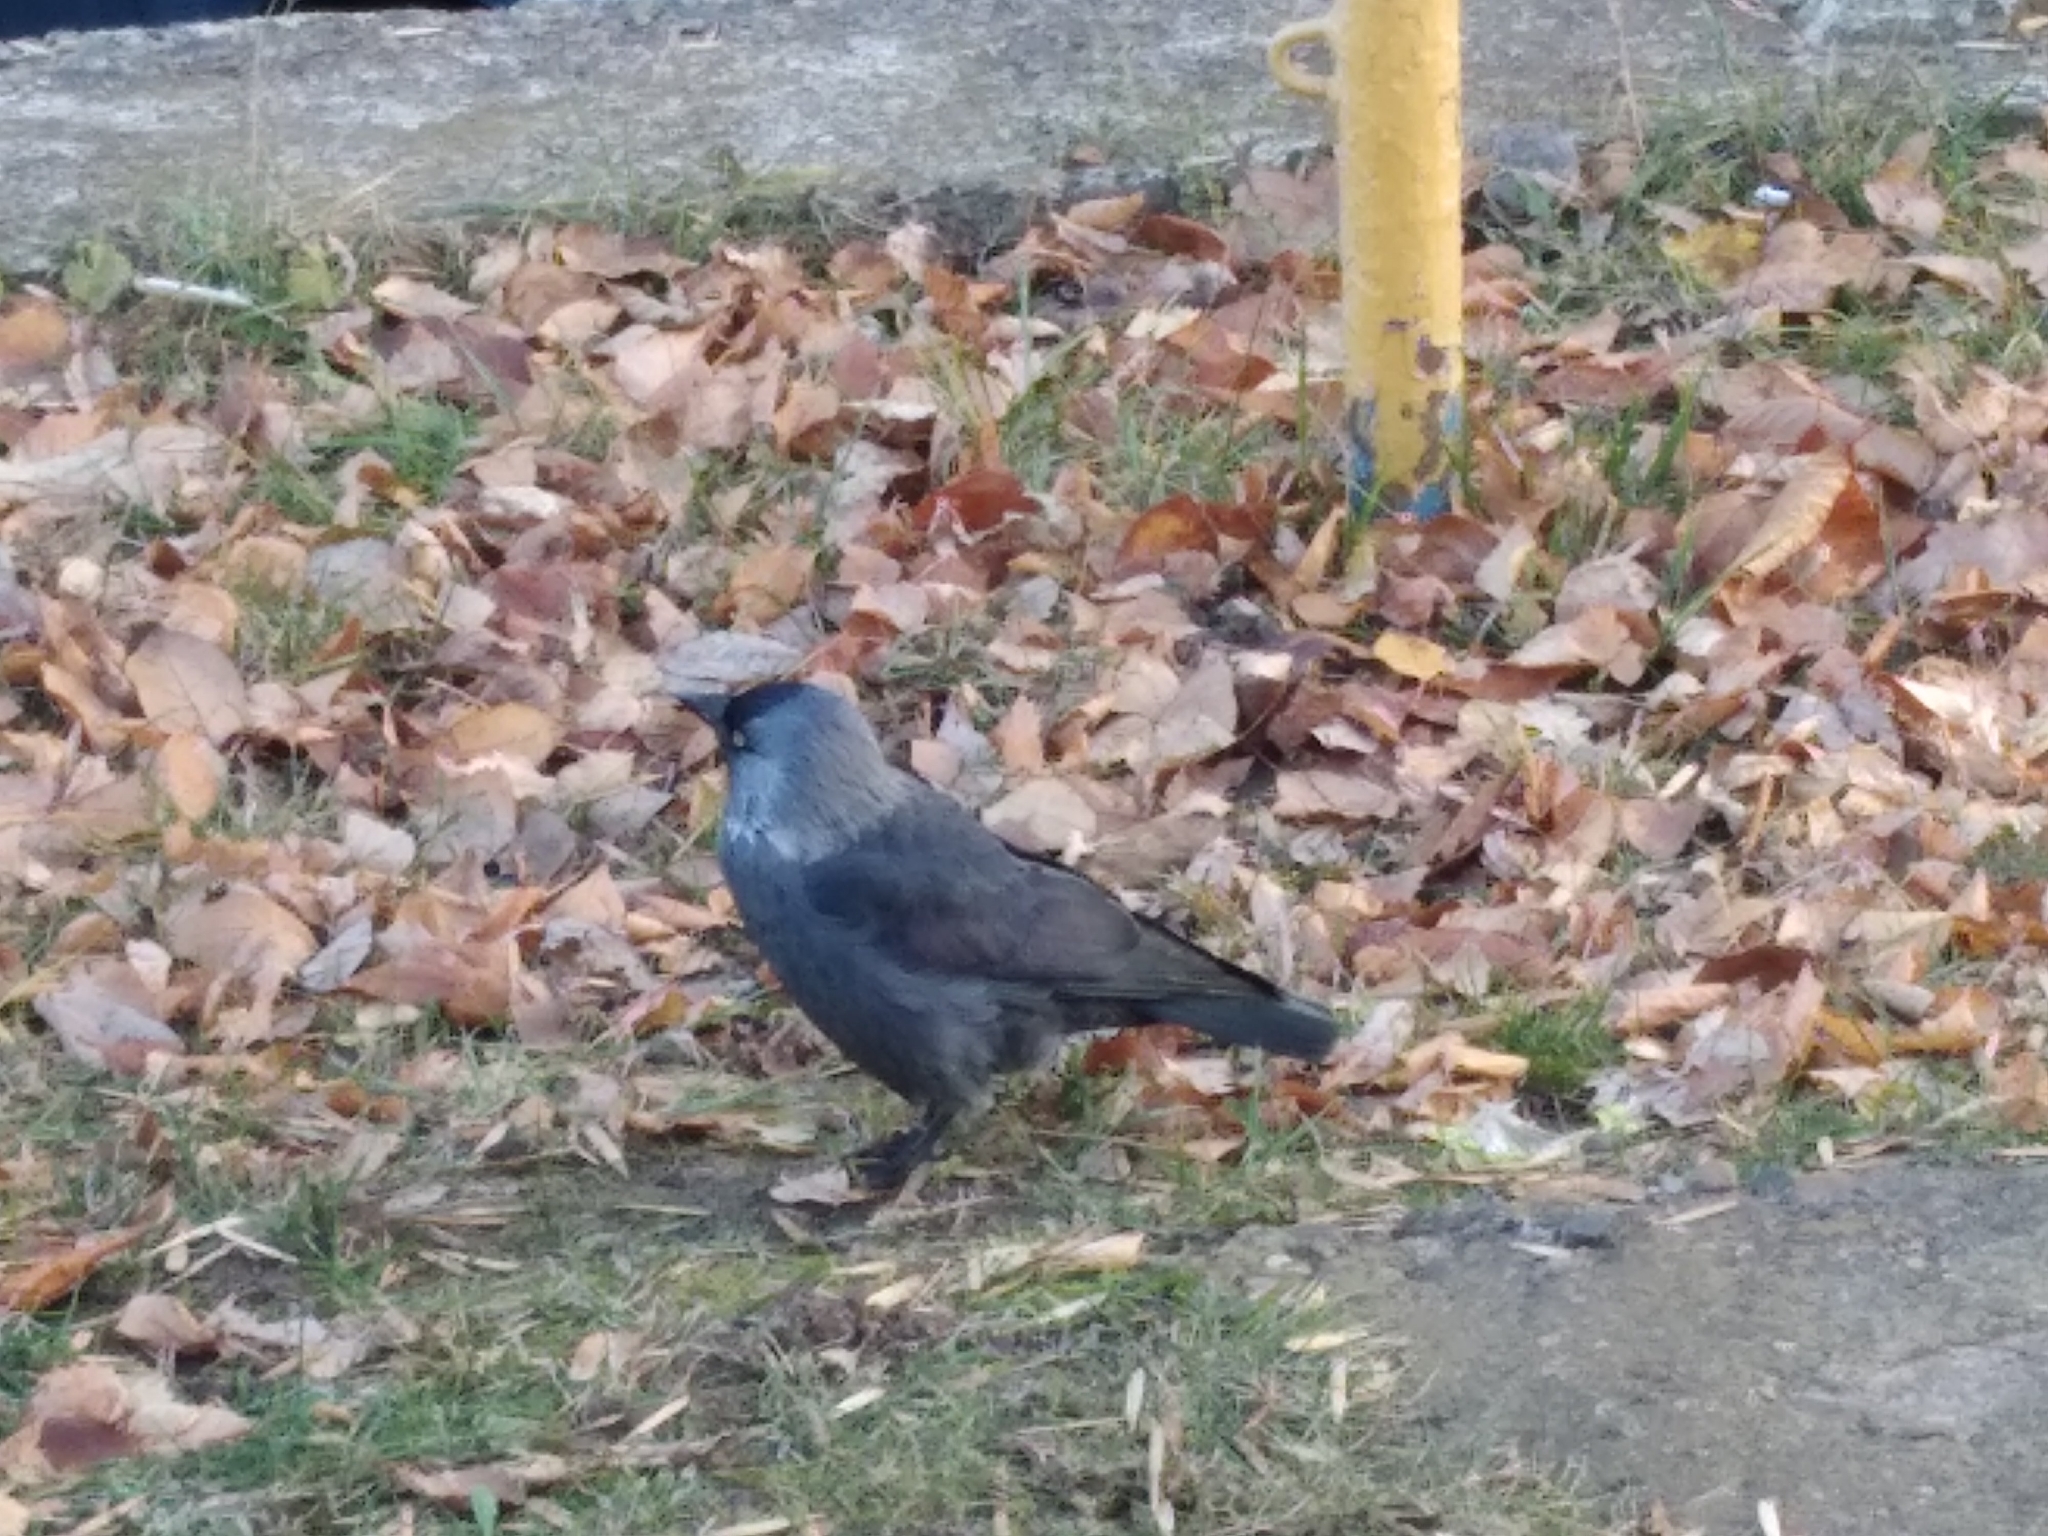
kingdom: Animalia
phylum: Chordata
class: Aves
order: Passeriformes
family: Corvidae
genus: Coloeus
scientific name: Coloeus monedula
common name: Western jackdaw
